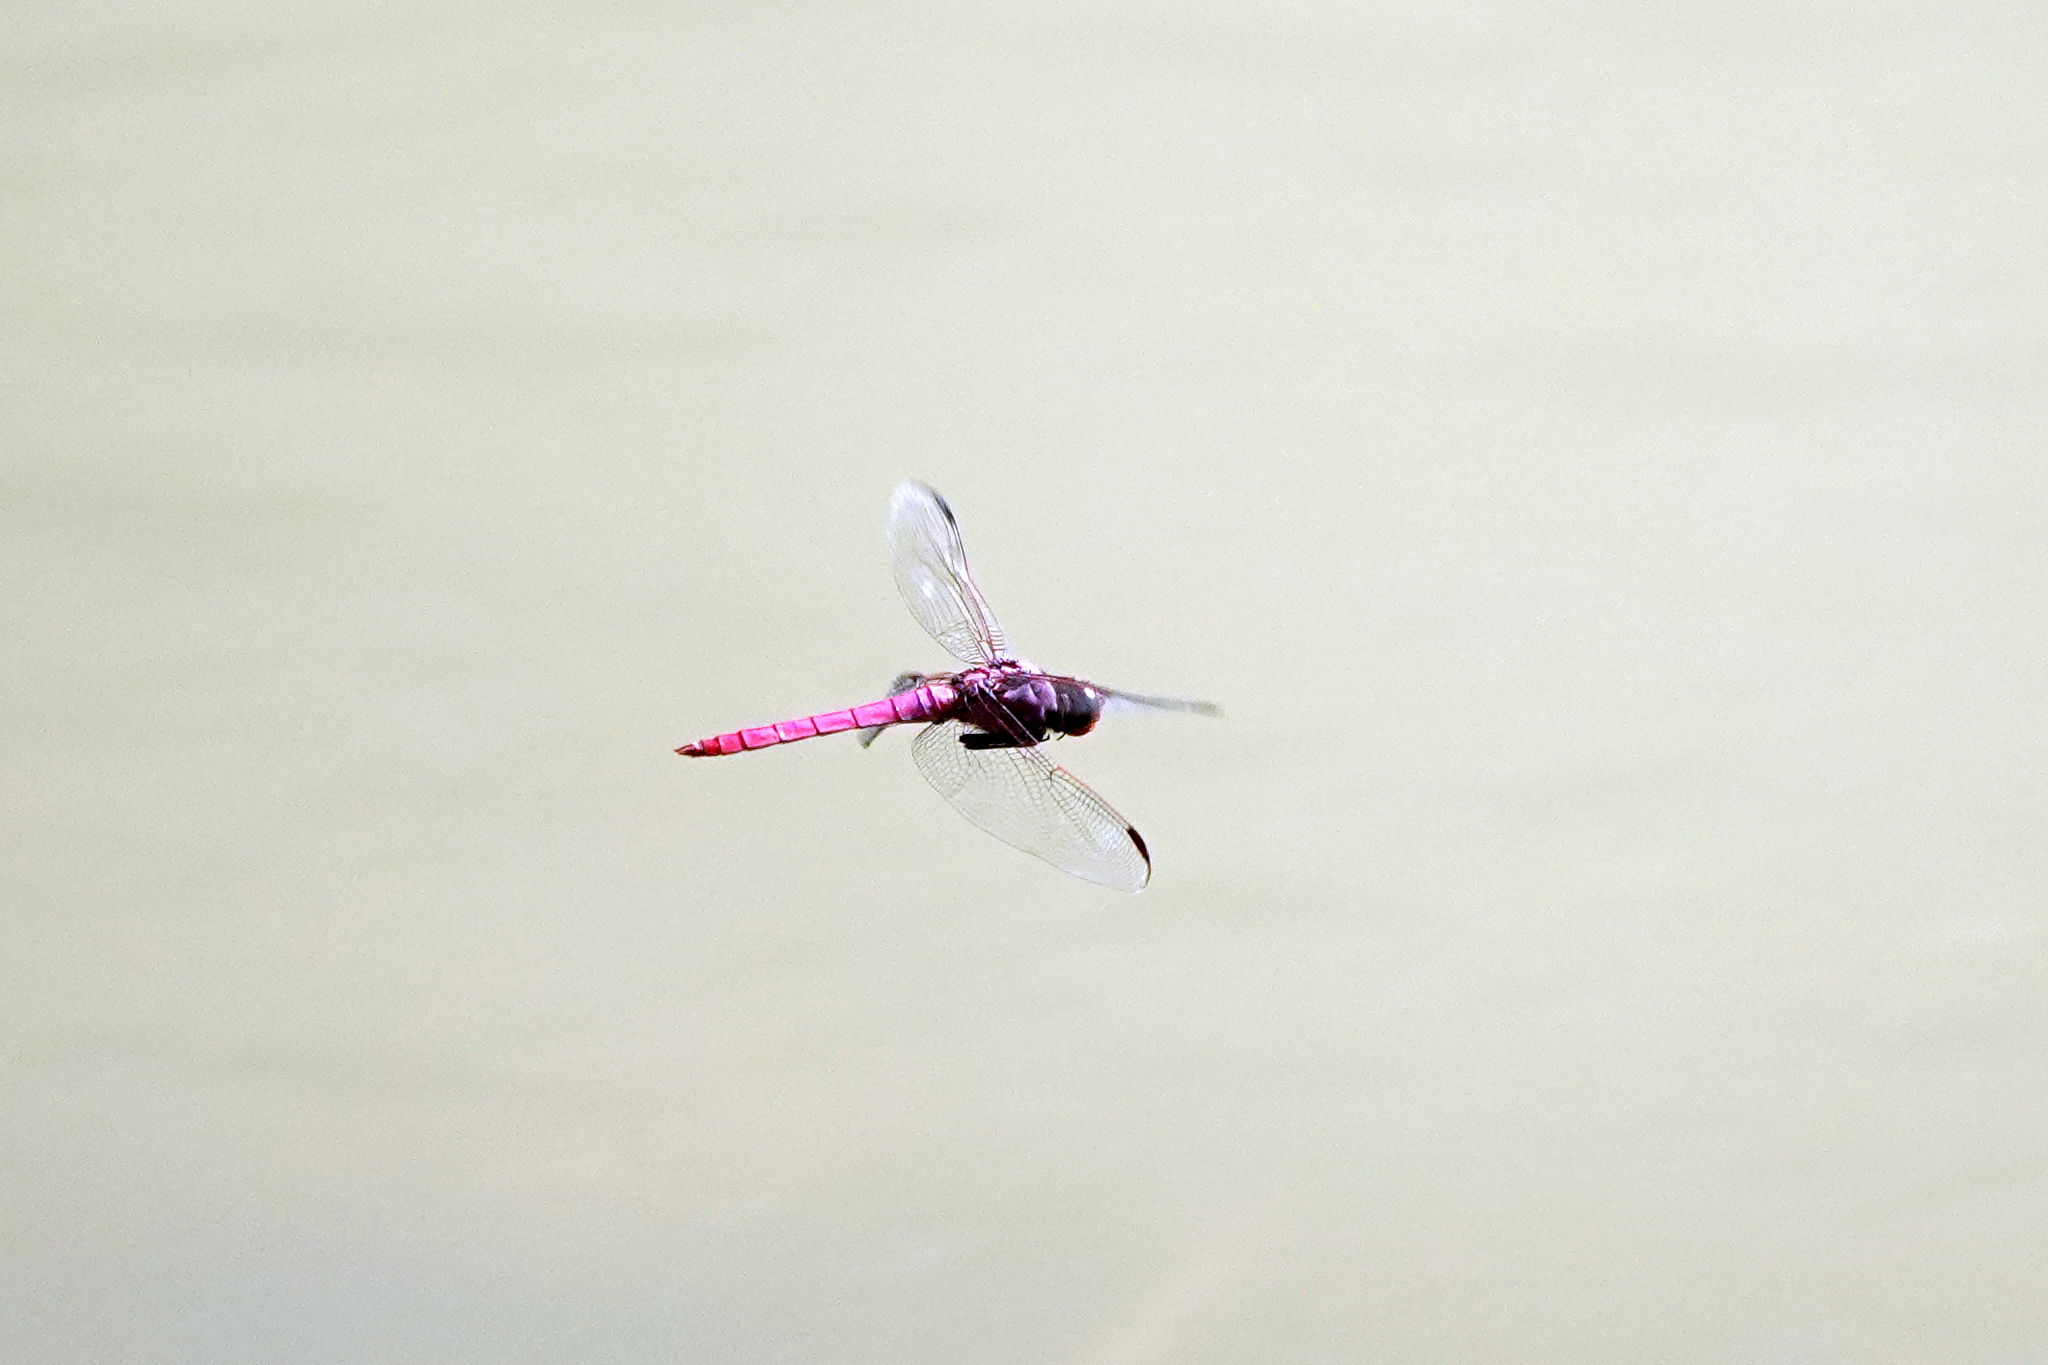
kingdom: Animalia
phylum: Arthropoda
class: Insecta
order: Odonata
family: Libellulidae
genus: Orthemis
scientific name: Orthemis ferruginea
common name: Roseate skimmer
